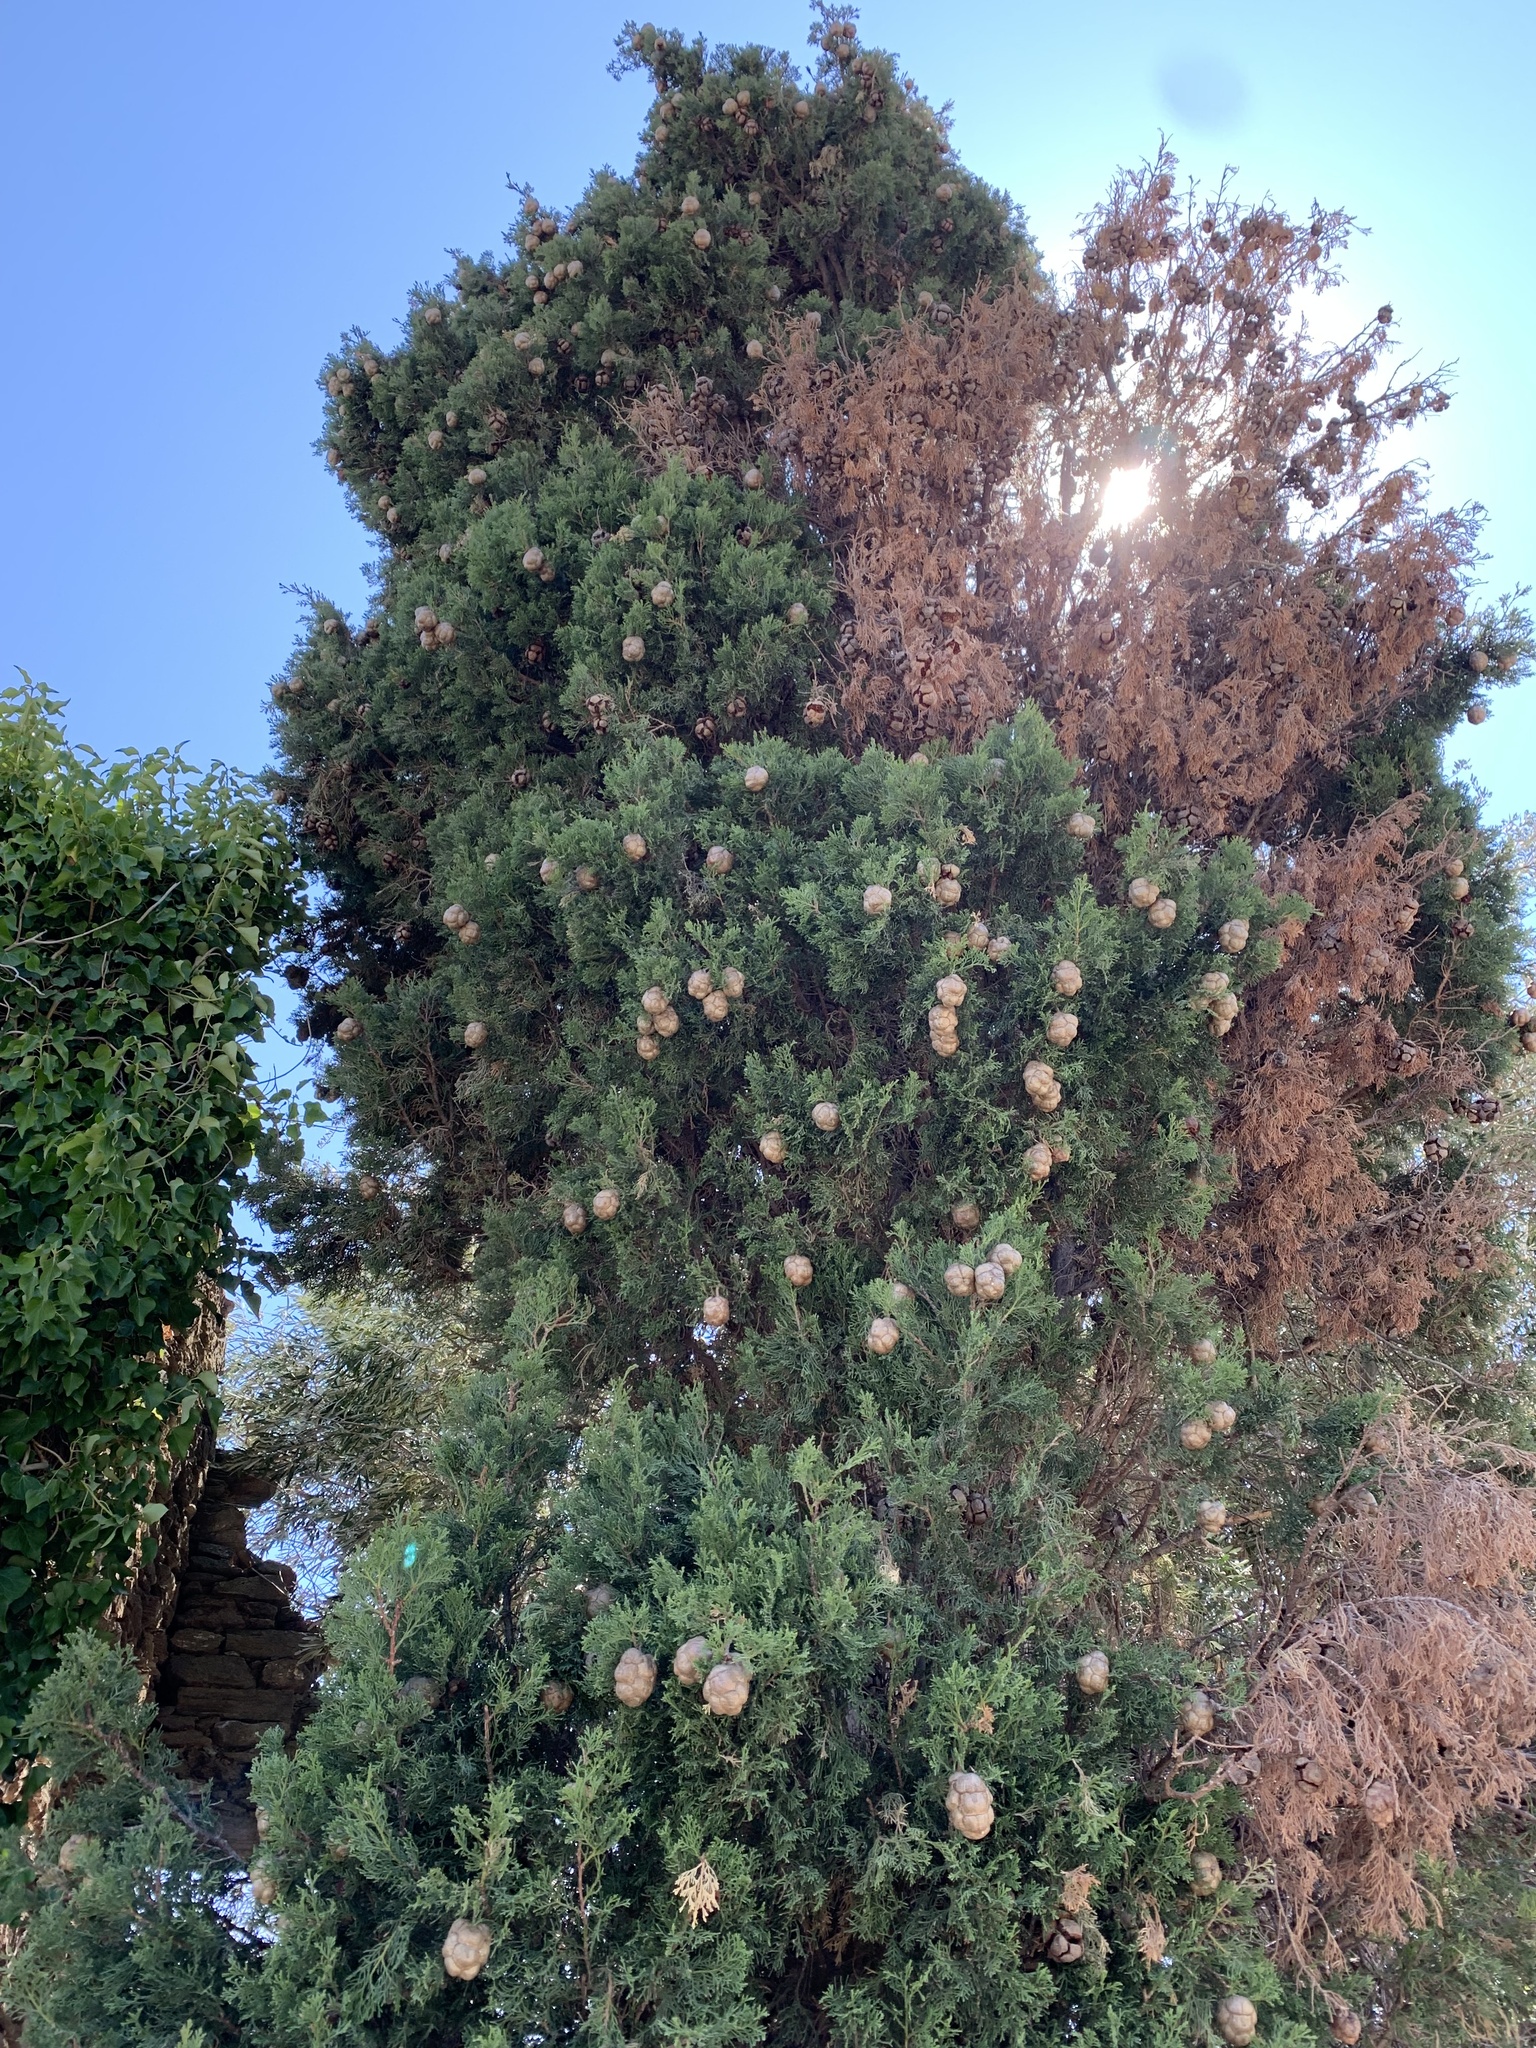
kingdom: Plantae
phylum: Tracheophyta
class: Pinopsida
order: Pinales
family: Cupressaceae
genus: Cupressus
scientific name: Cupressus sempervirens
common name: Italian cypress
